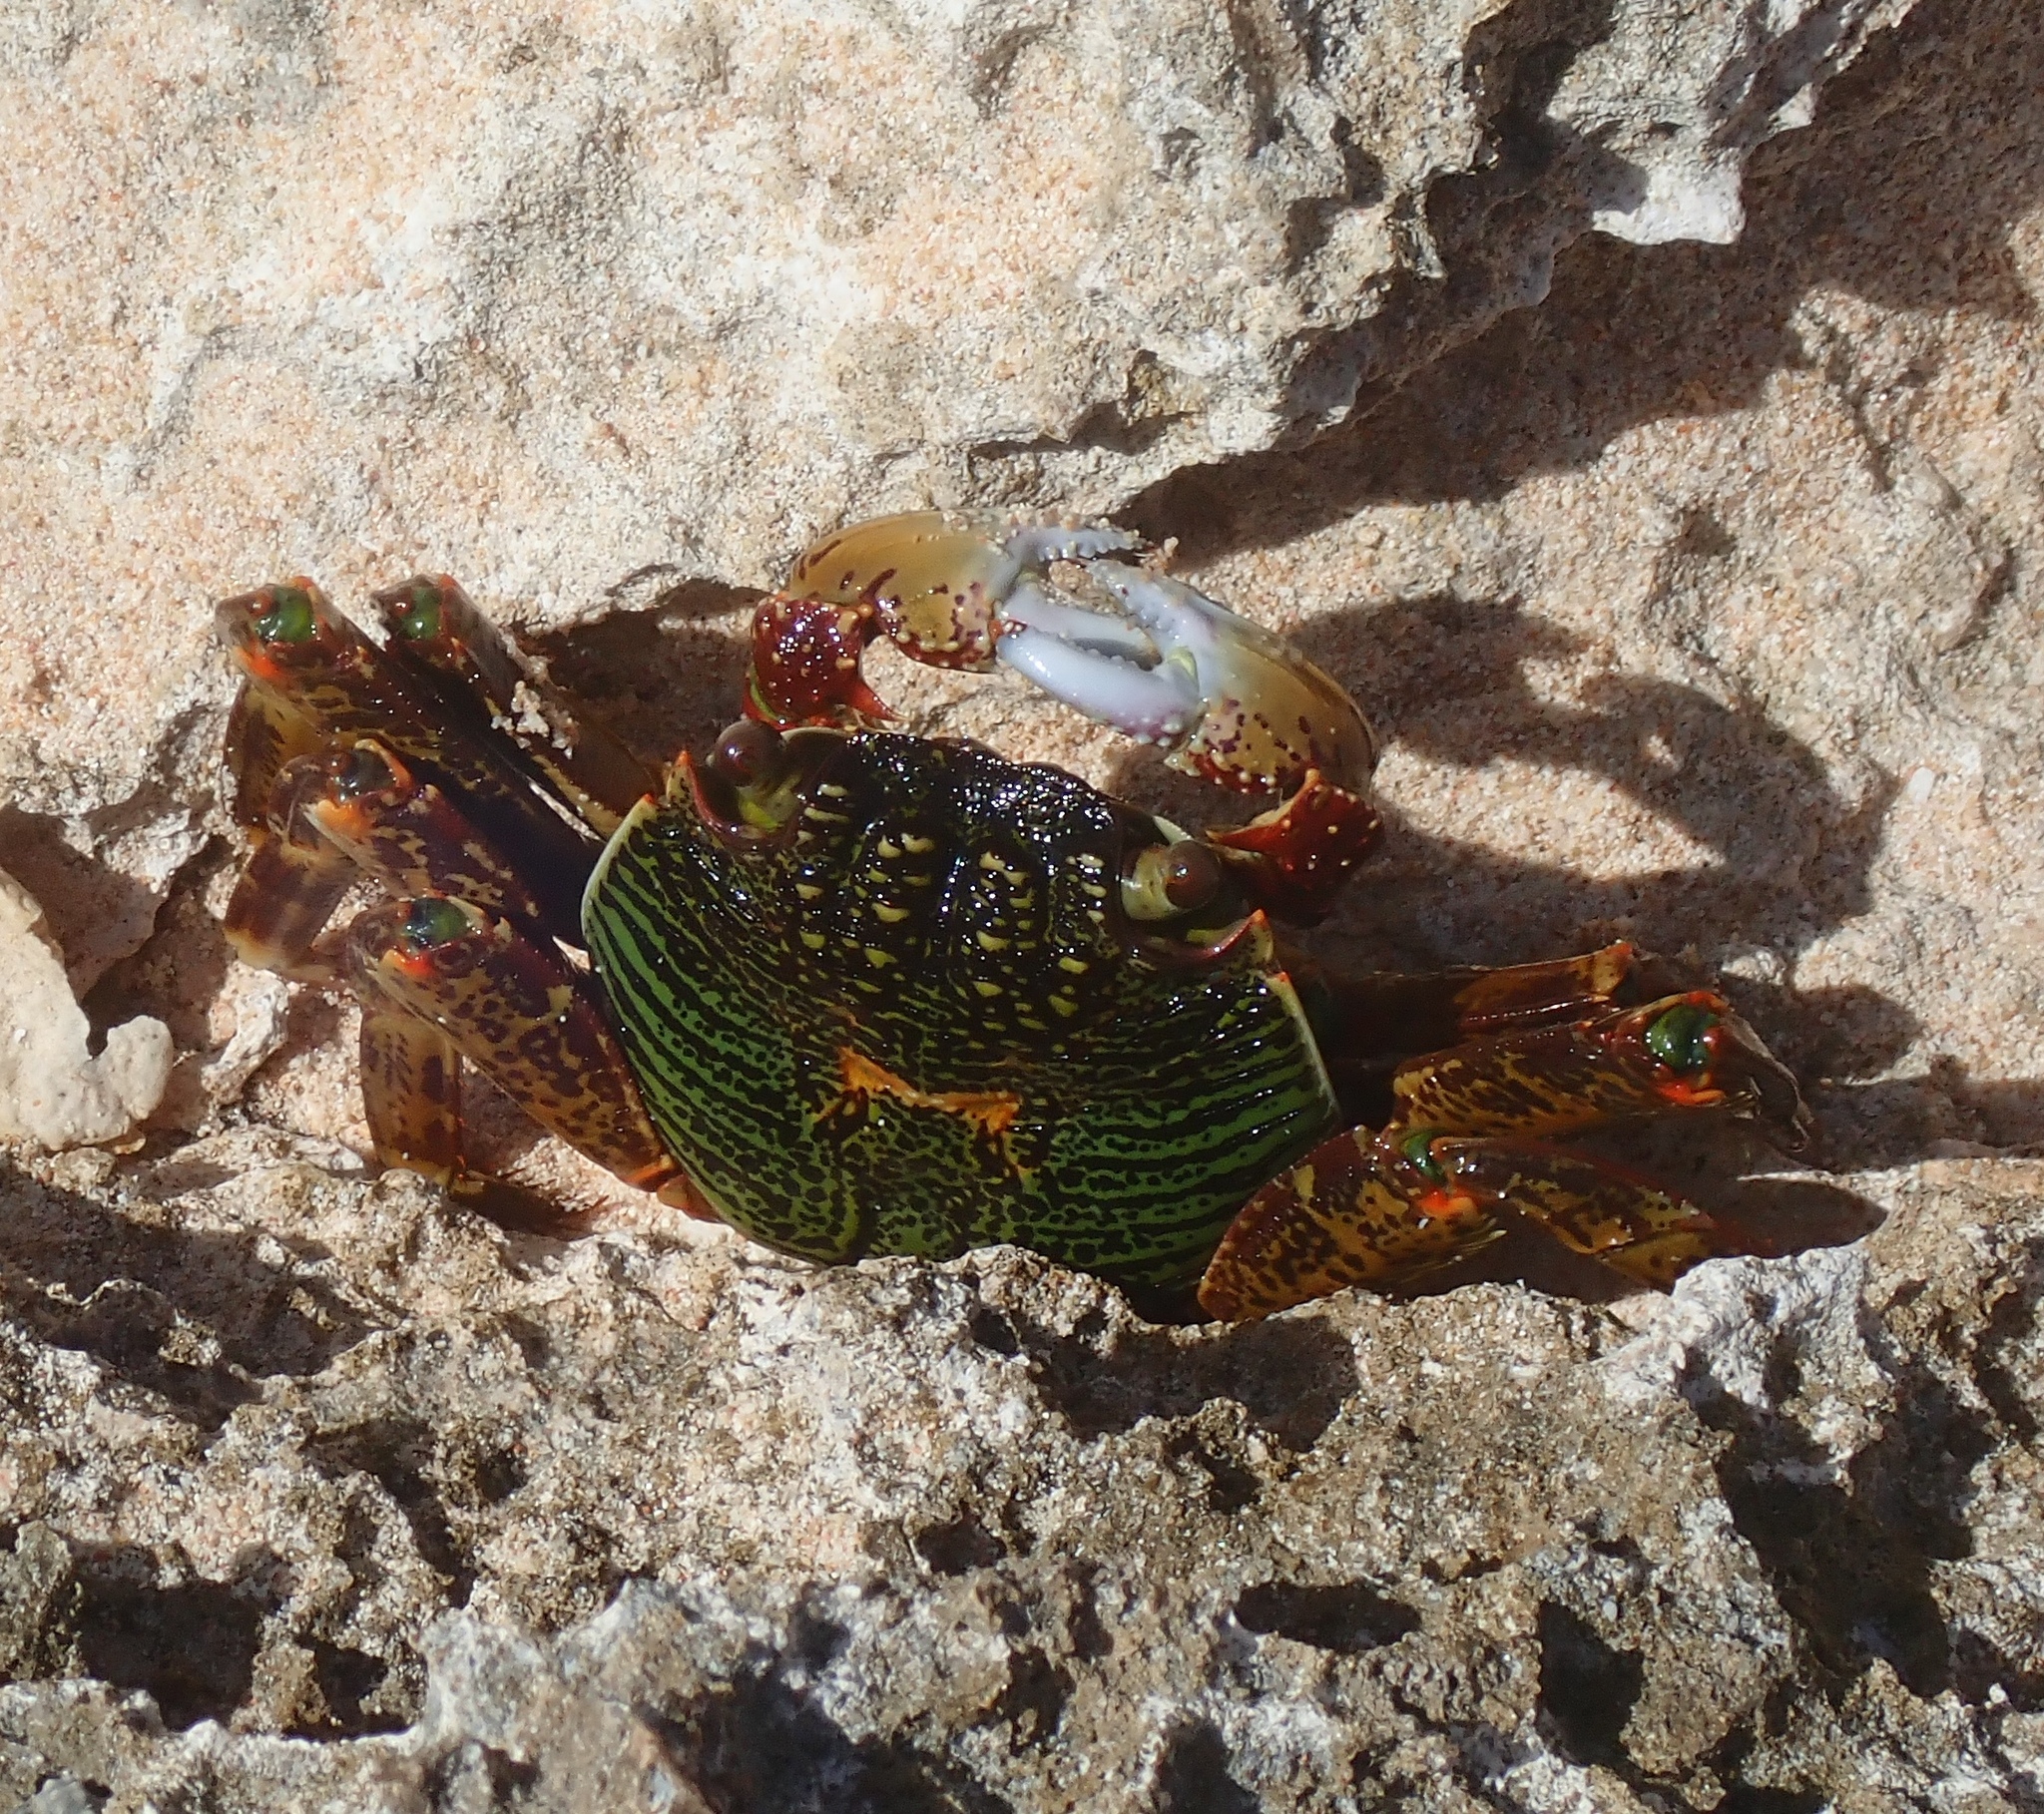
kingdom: Animalia
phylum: Arthropoda
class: Malacostraca
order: Decapoda
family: Grapsidae
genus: Grapsus
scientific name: Grapsus albolineatus
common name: Mottled lightfoot crab
